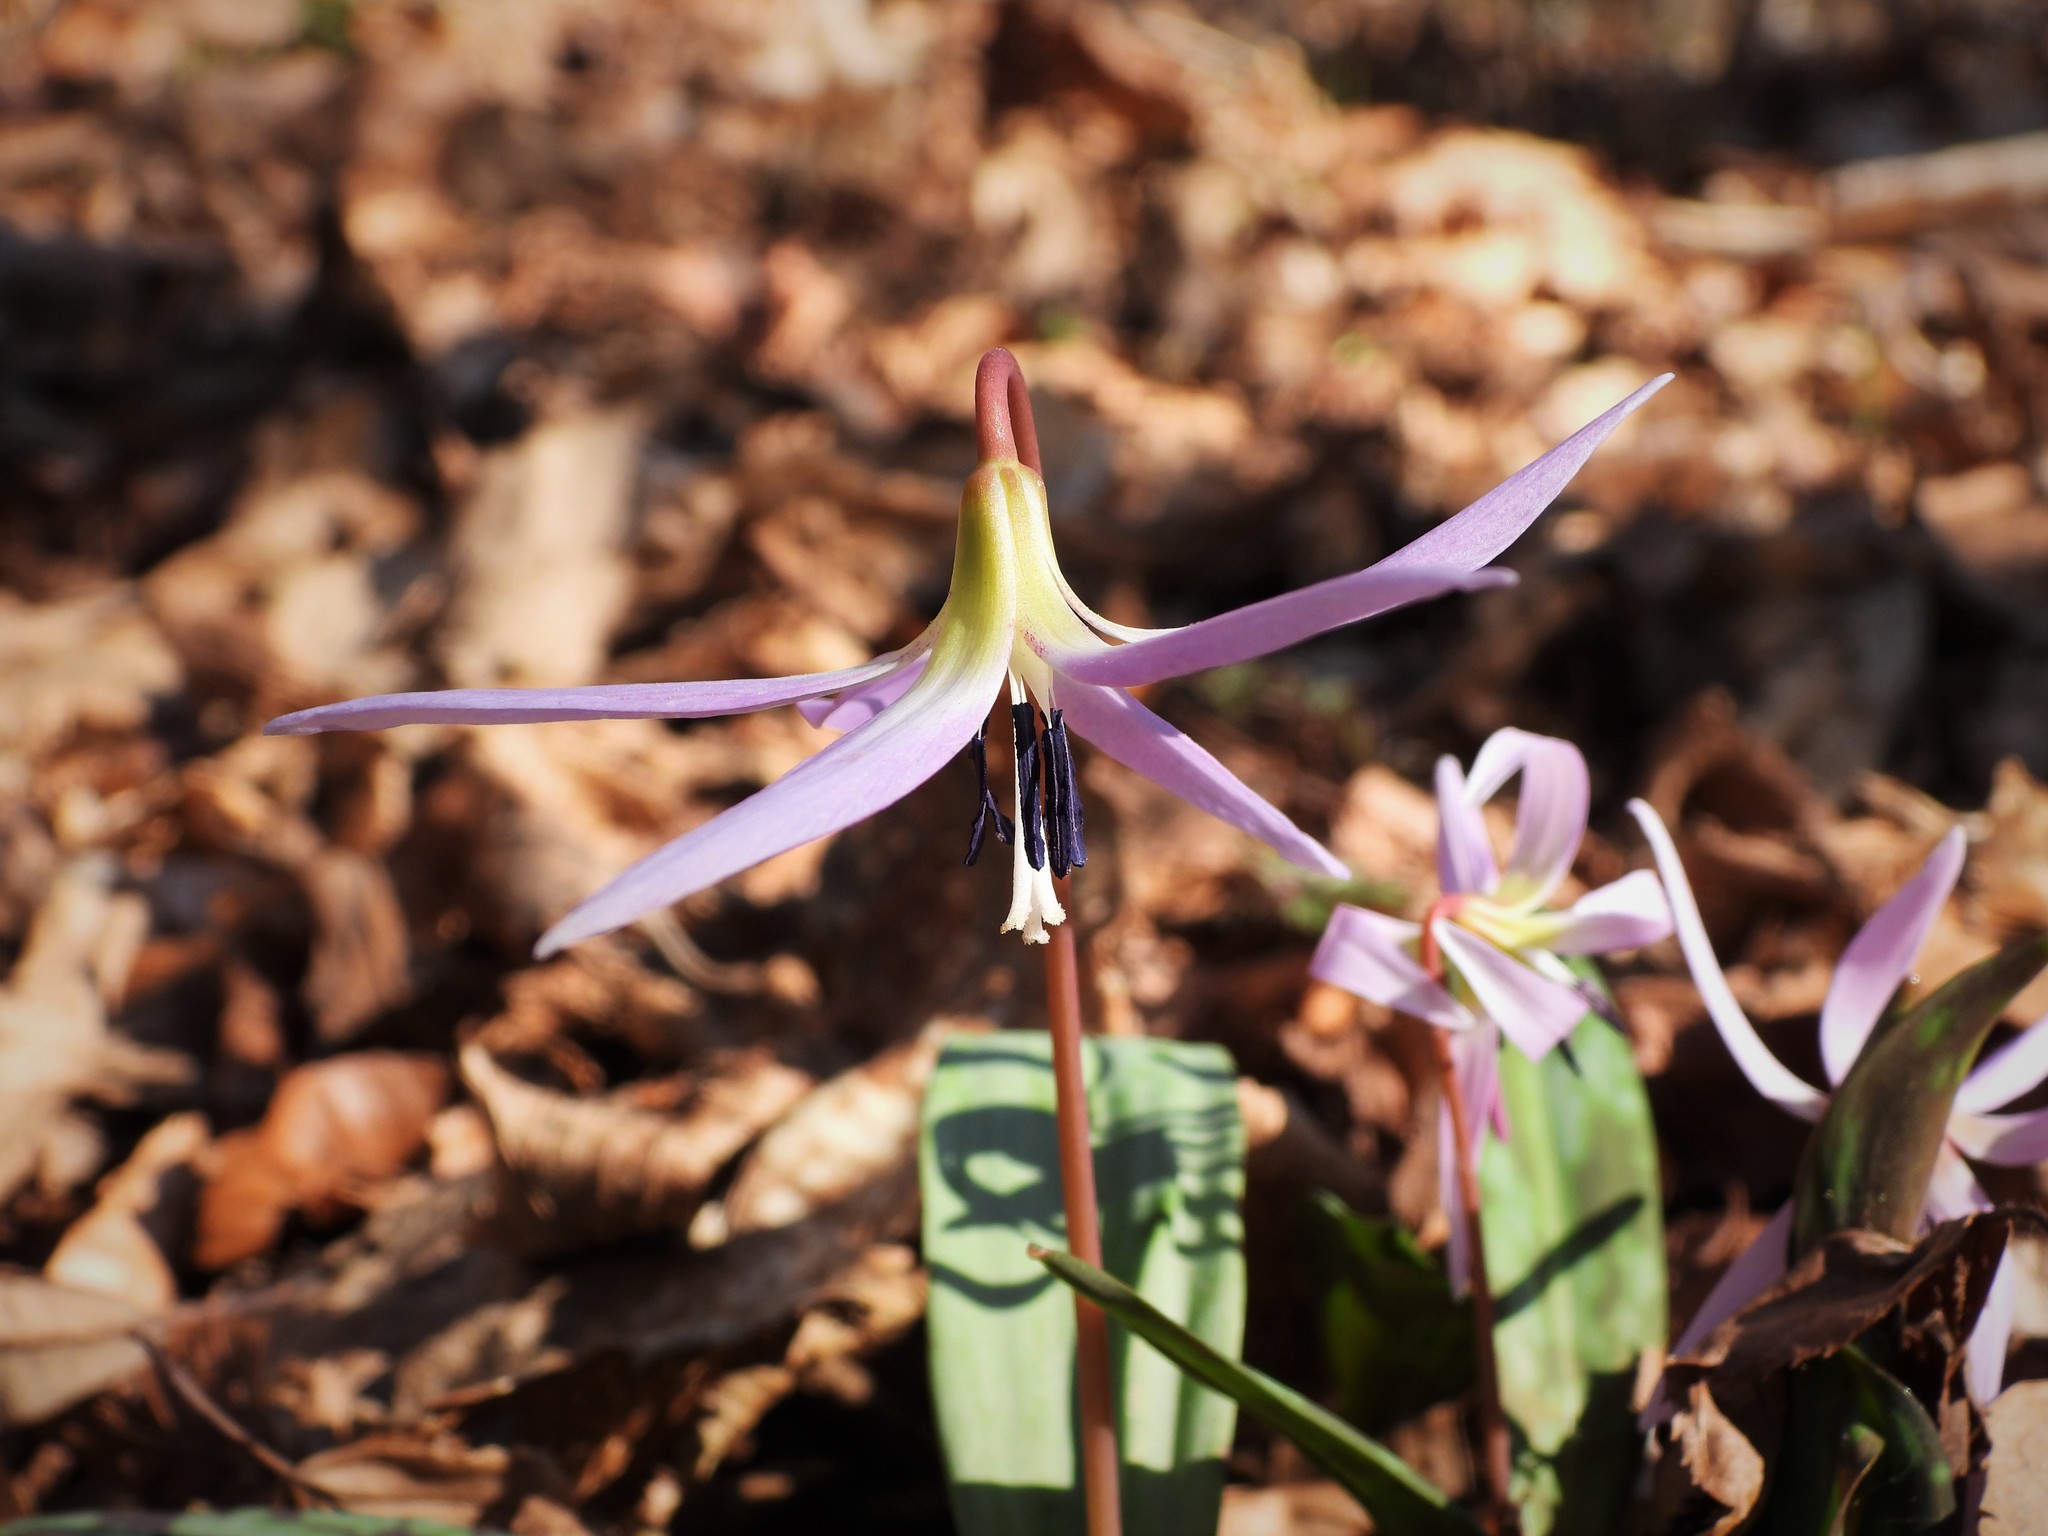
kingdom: Plantae
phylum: Tracheophyta
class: Liliopsida
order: Liliales
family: Liliaceae
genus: Erythronium
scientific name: Erythronium dens-canis
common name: Dog's-tooth-violet
